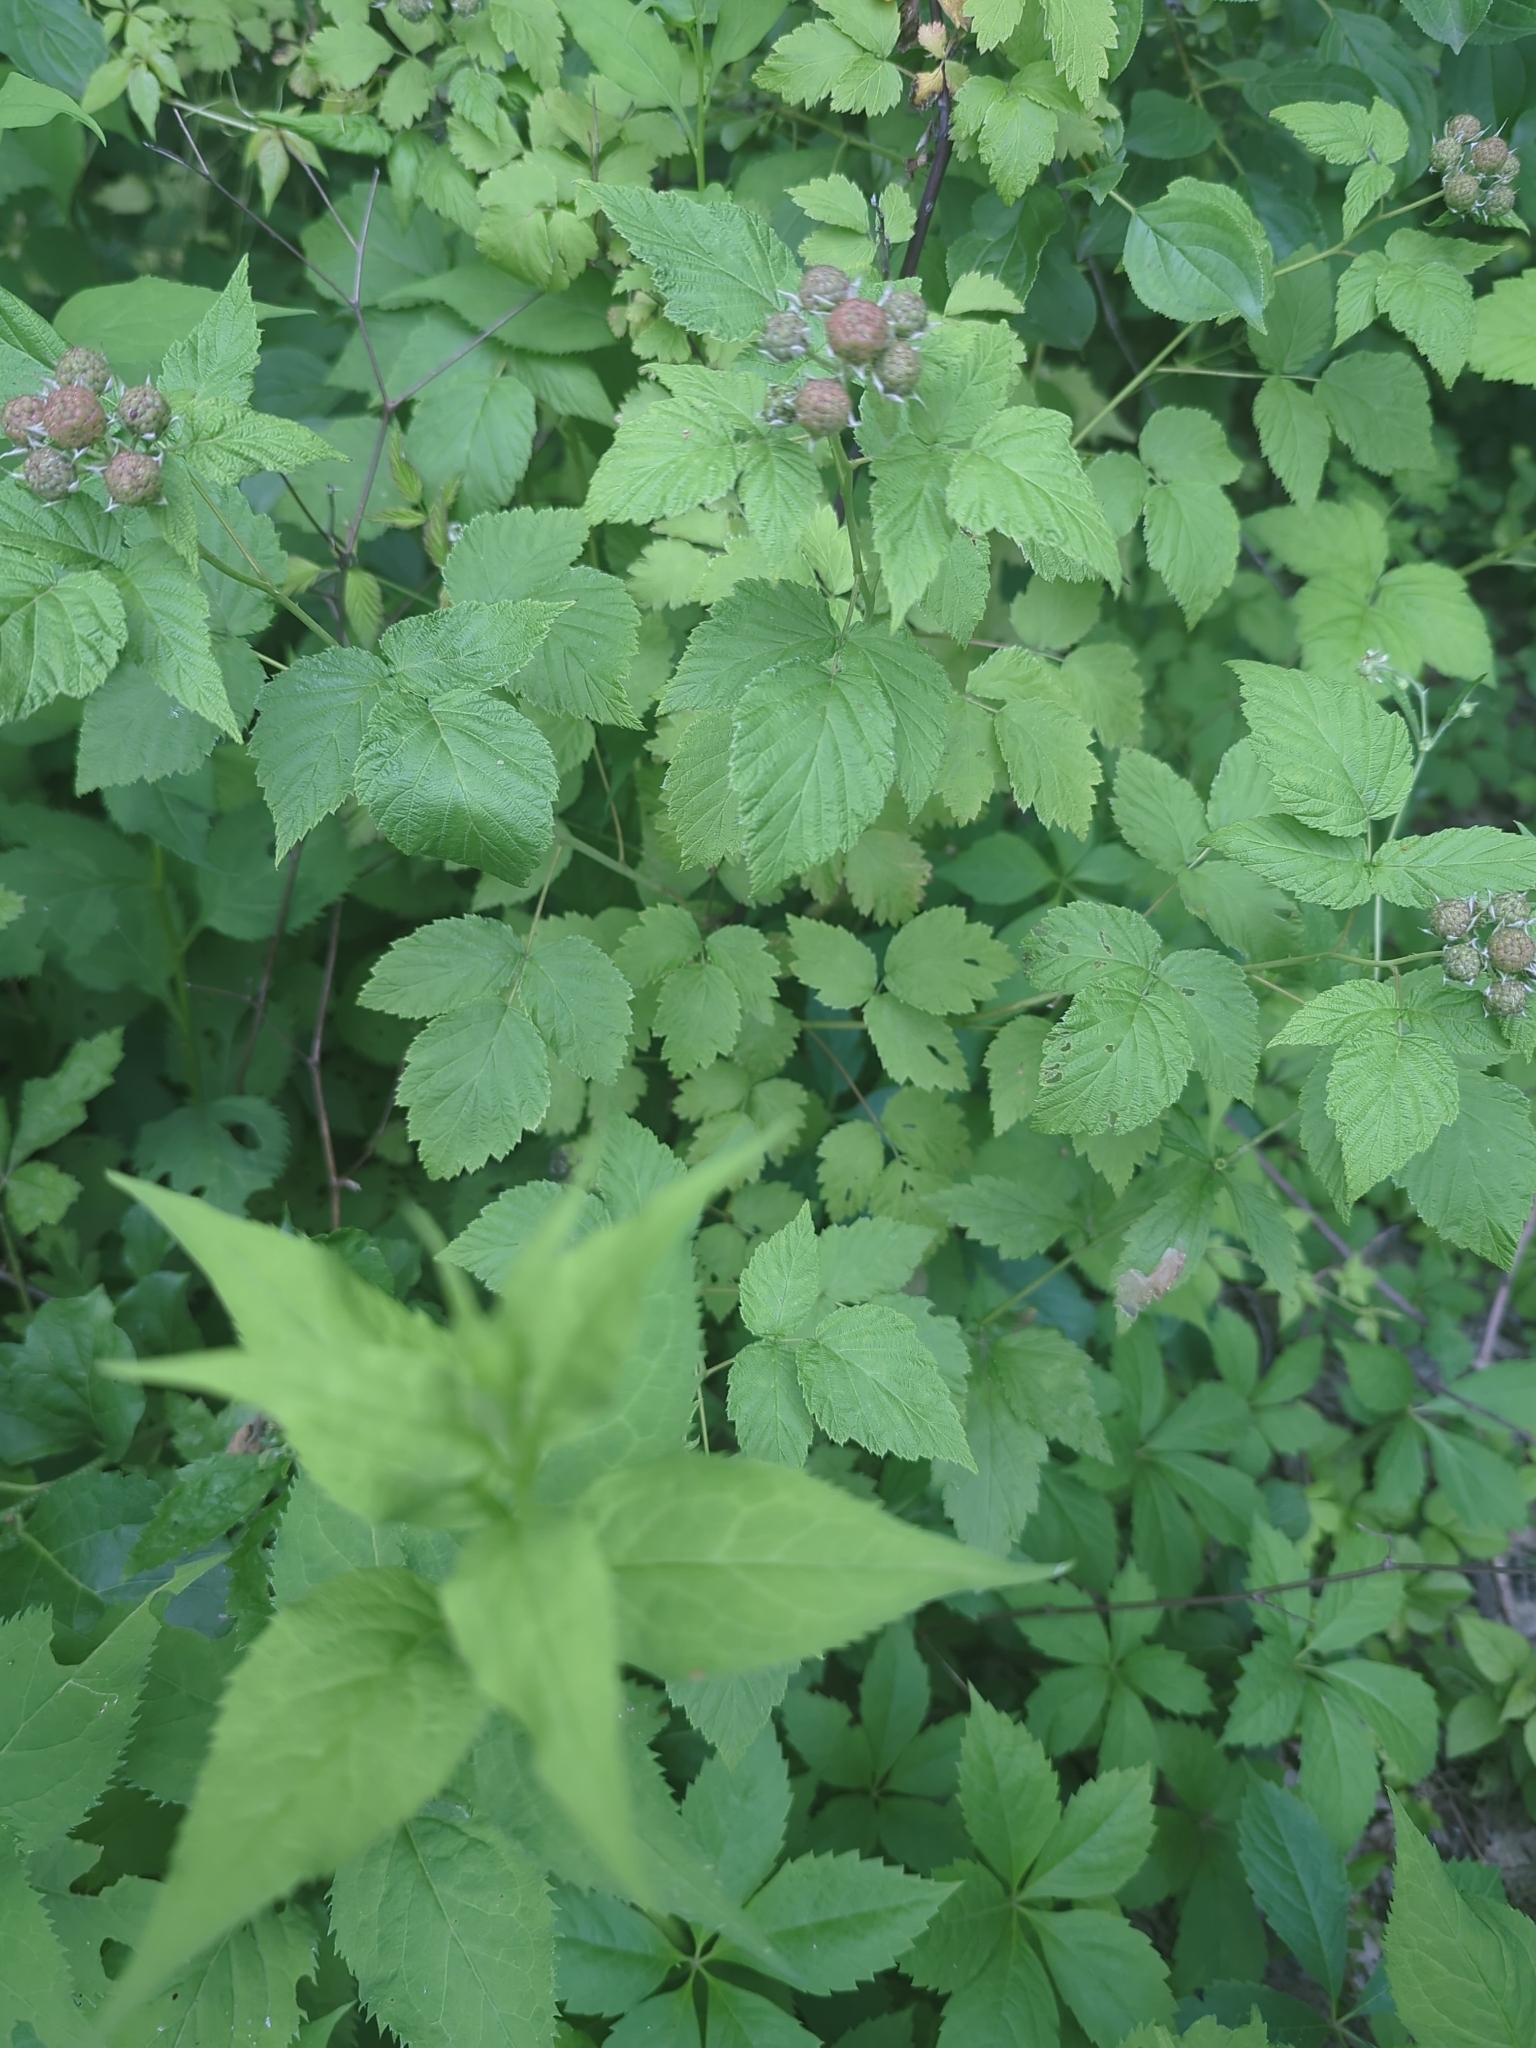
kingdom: Plantae
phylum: Tracheophyta
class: Magnoliopsida
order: Rosales
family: Rosaceae
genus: Rubus
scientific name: Rubus occidentalis
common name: Black raspberry
